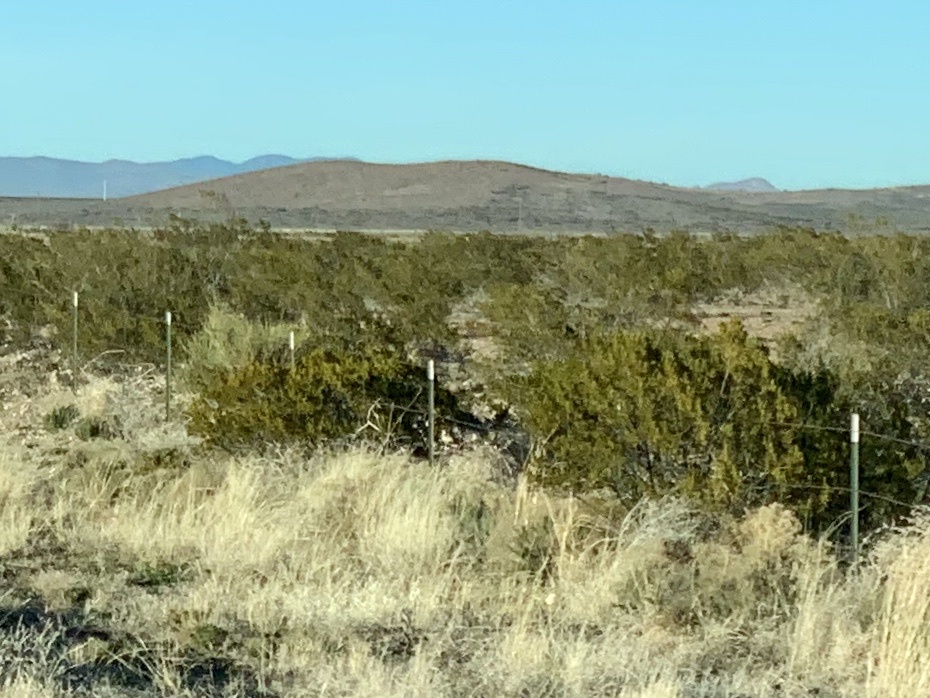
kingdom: Plantae
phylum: Tracheophyta
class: Magnoliopsida
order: Zygophyllales
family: Zygophyllaceae
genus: Larrea
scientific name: Larrea tridentata
